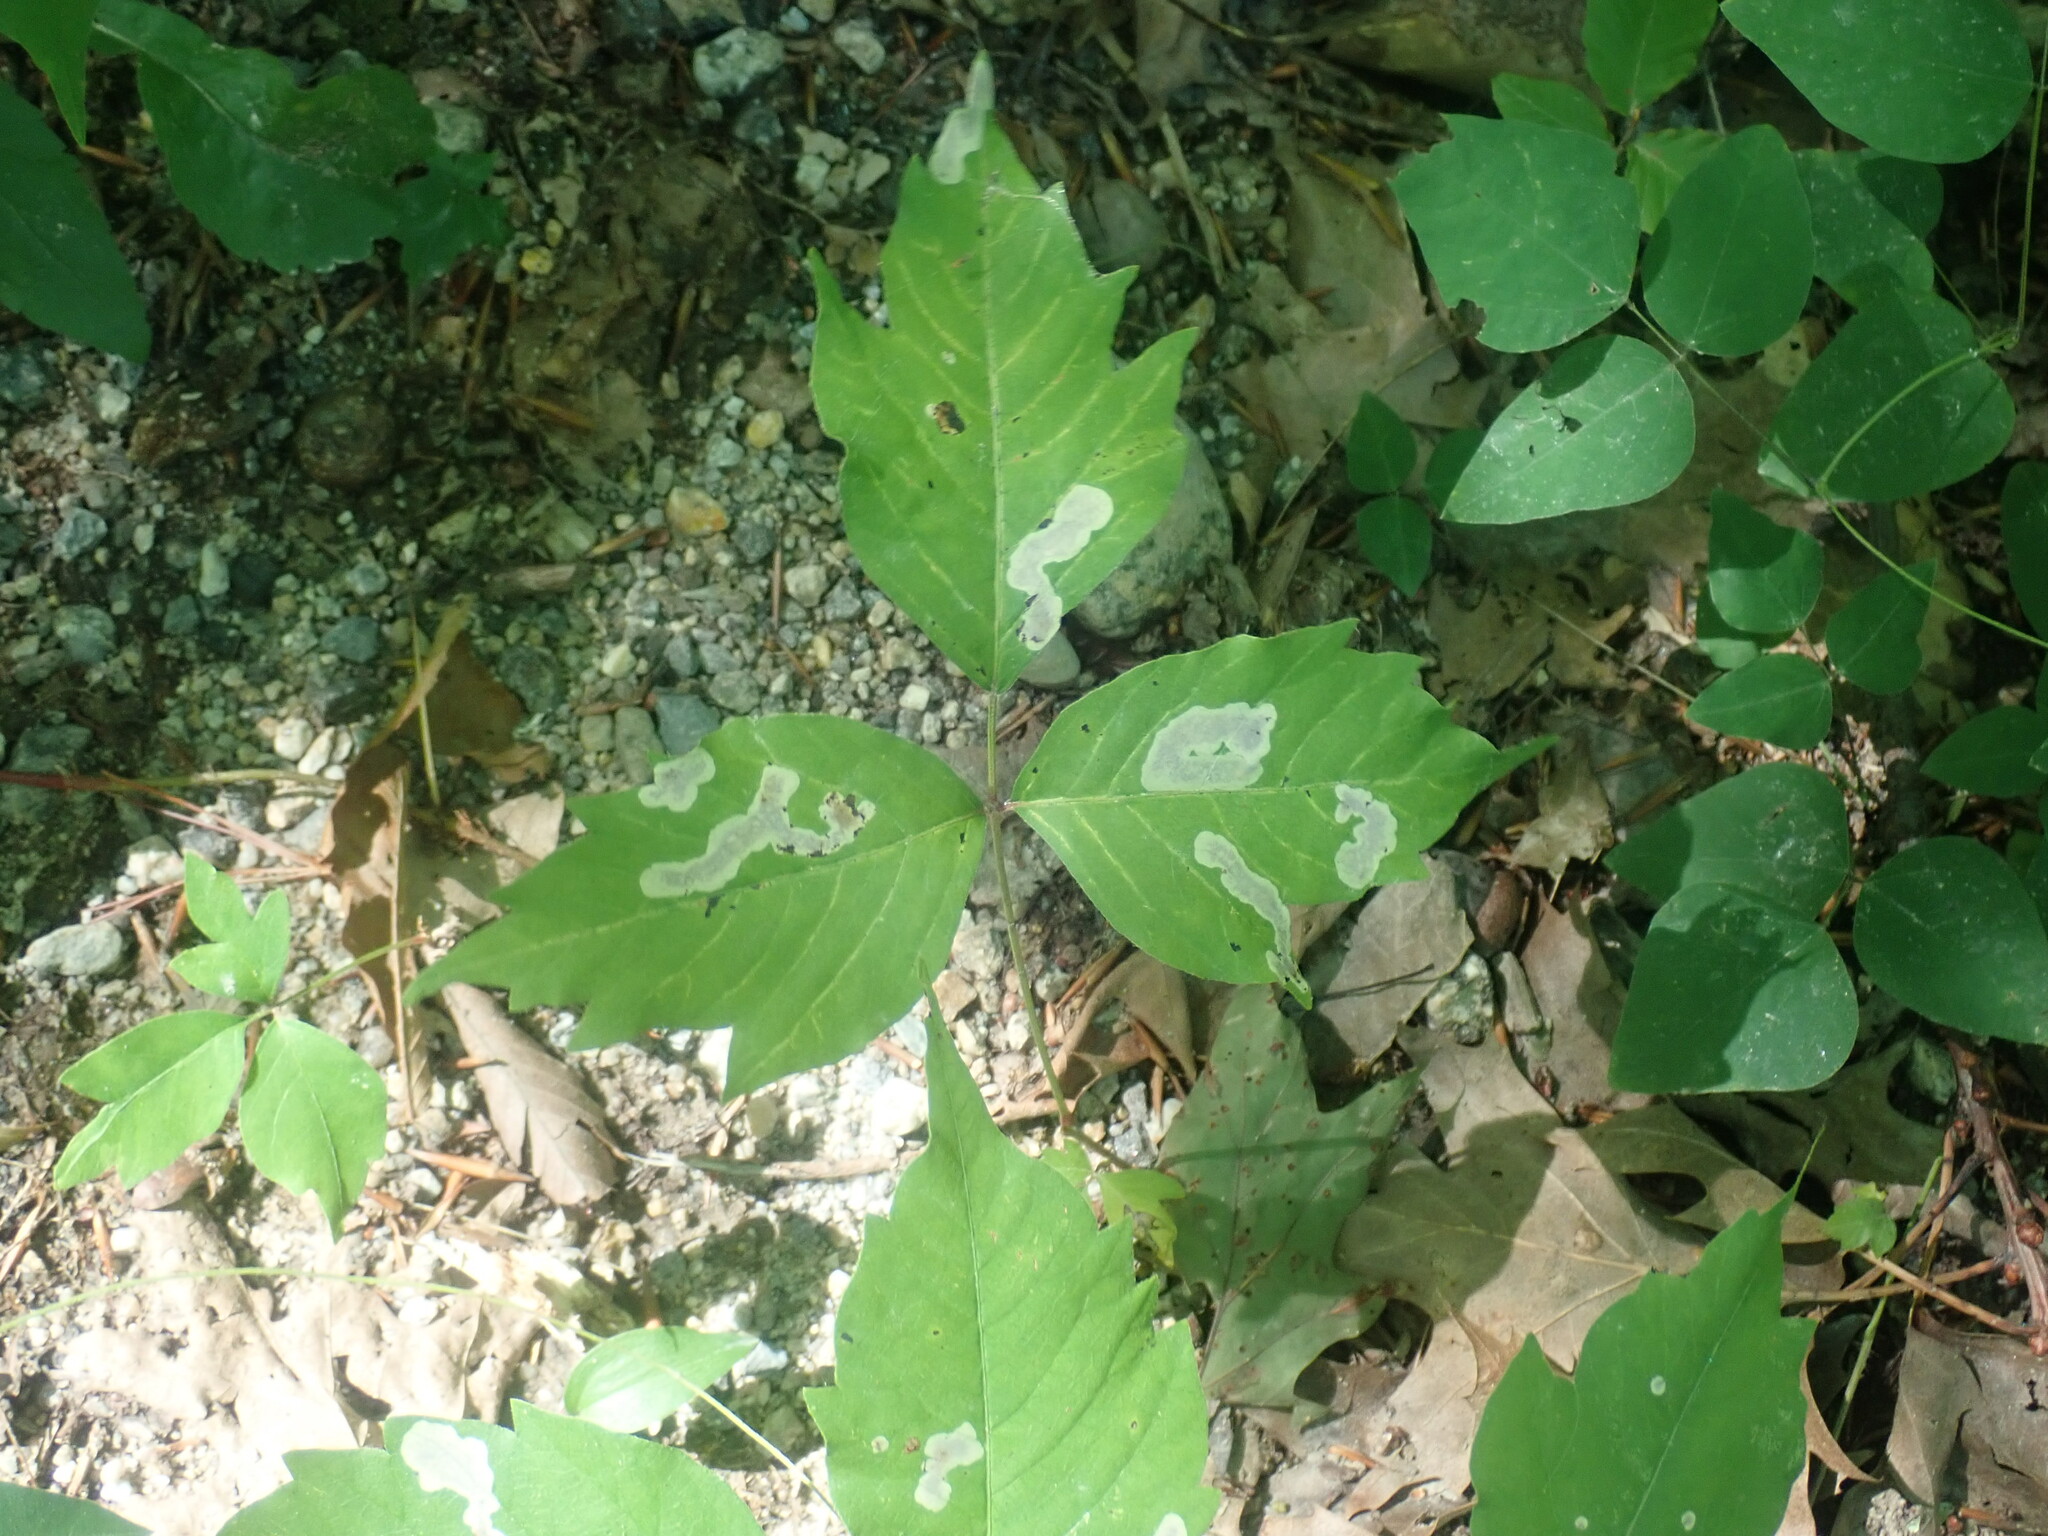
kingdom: Plantae
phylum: Tracheophyta
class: Magnoliopsida
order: Sapindales
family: Anacardiaceae
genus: Toxicodendron
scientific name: Toxicodendron
